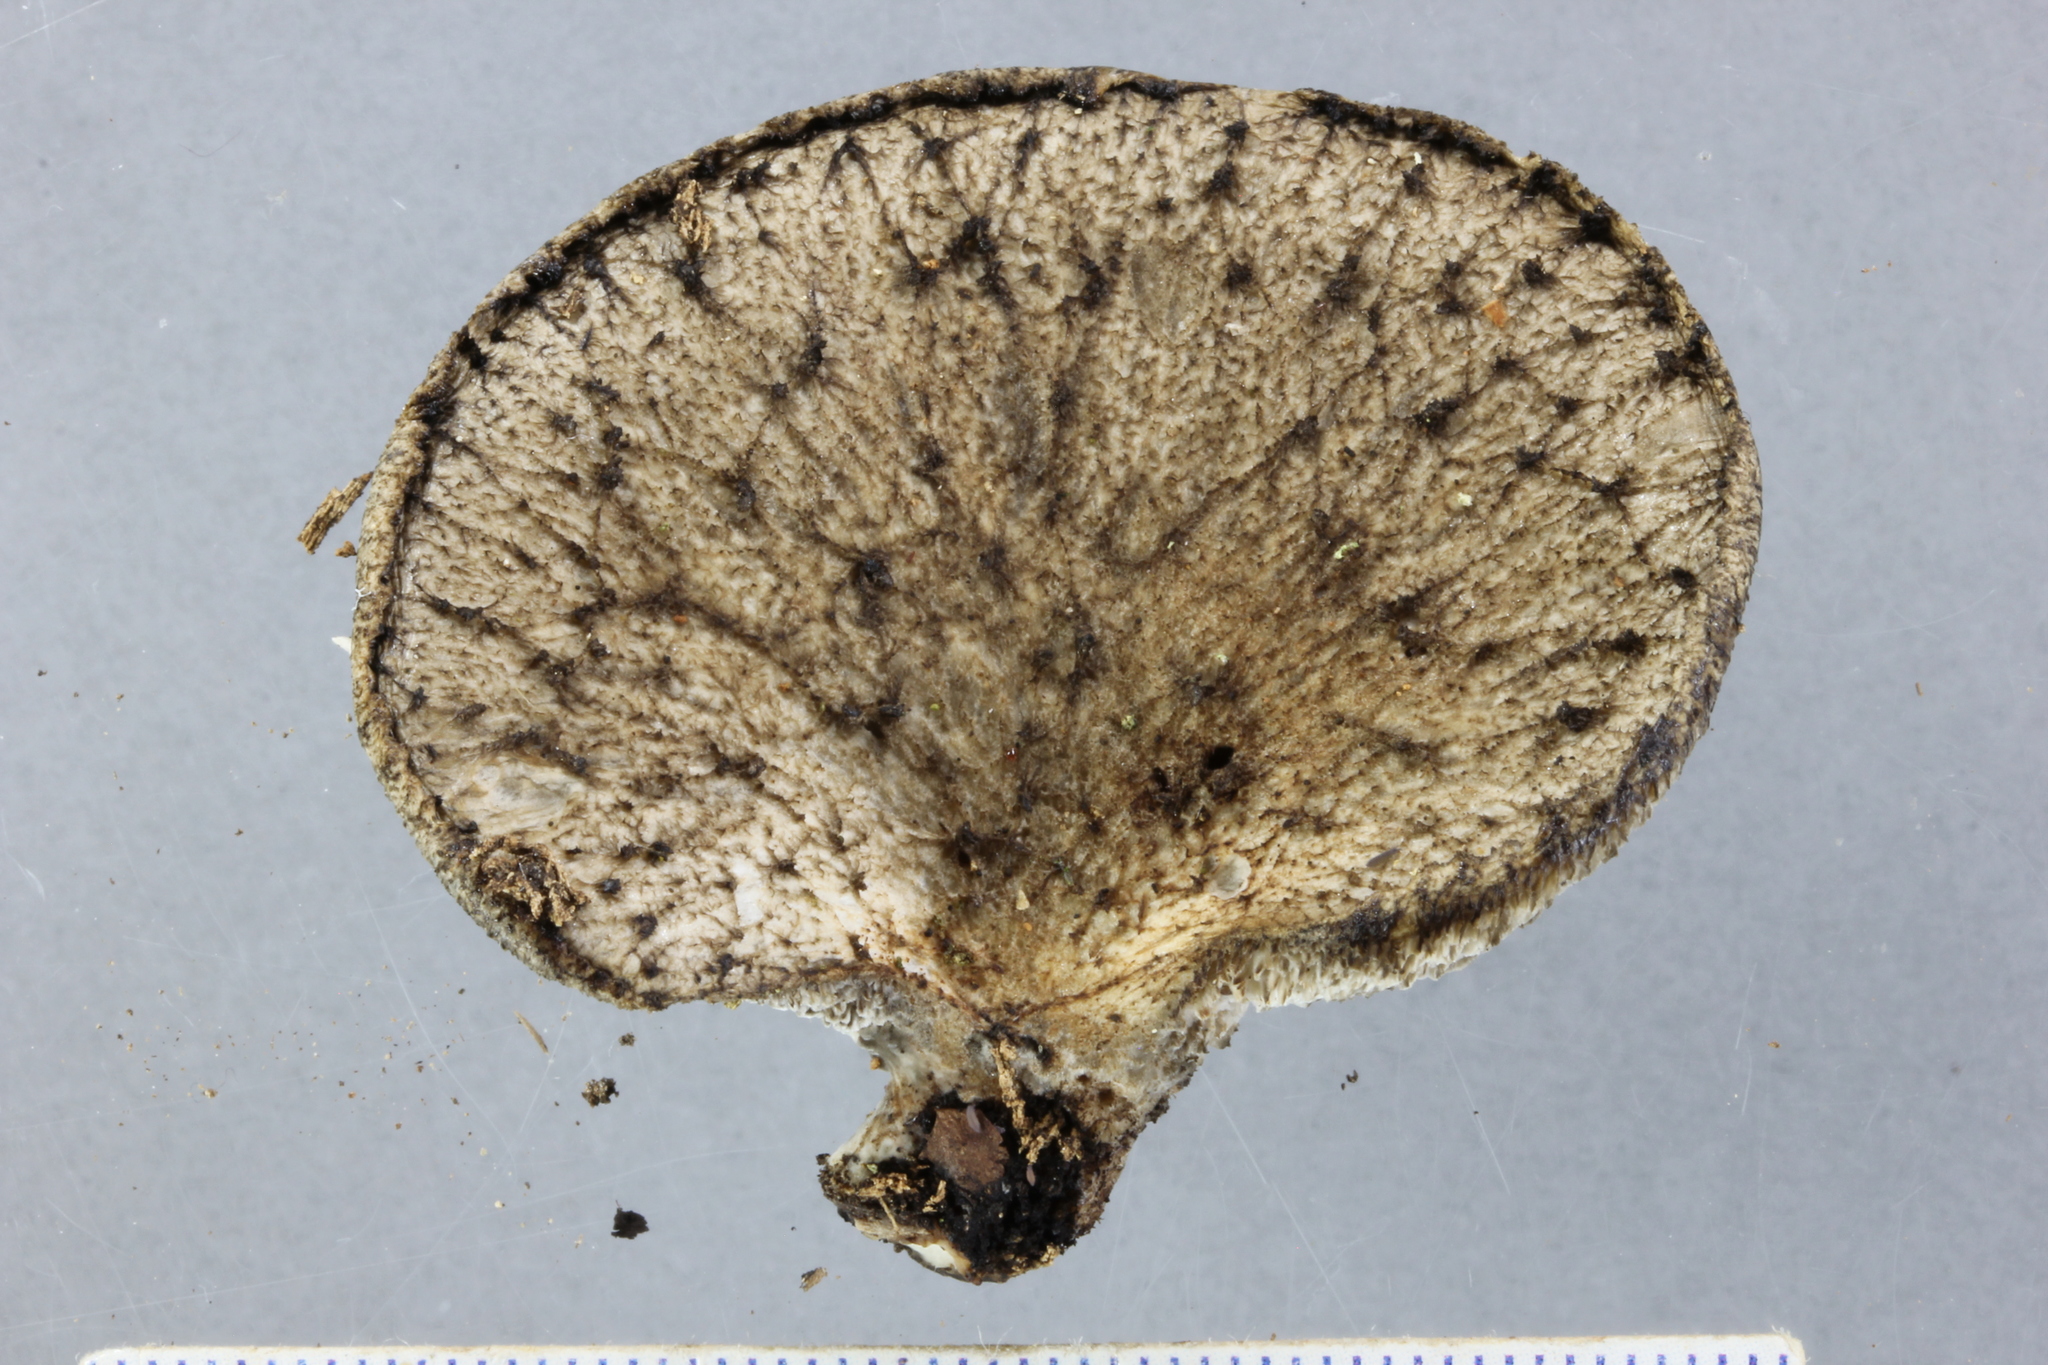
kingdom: Fungi
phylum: Basidiomycota
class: Agaricomycetes
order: Polyporales
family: Polyporaceae
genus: Bresadolia
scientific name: Bresadolia
